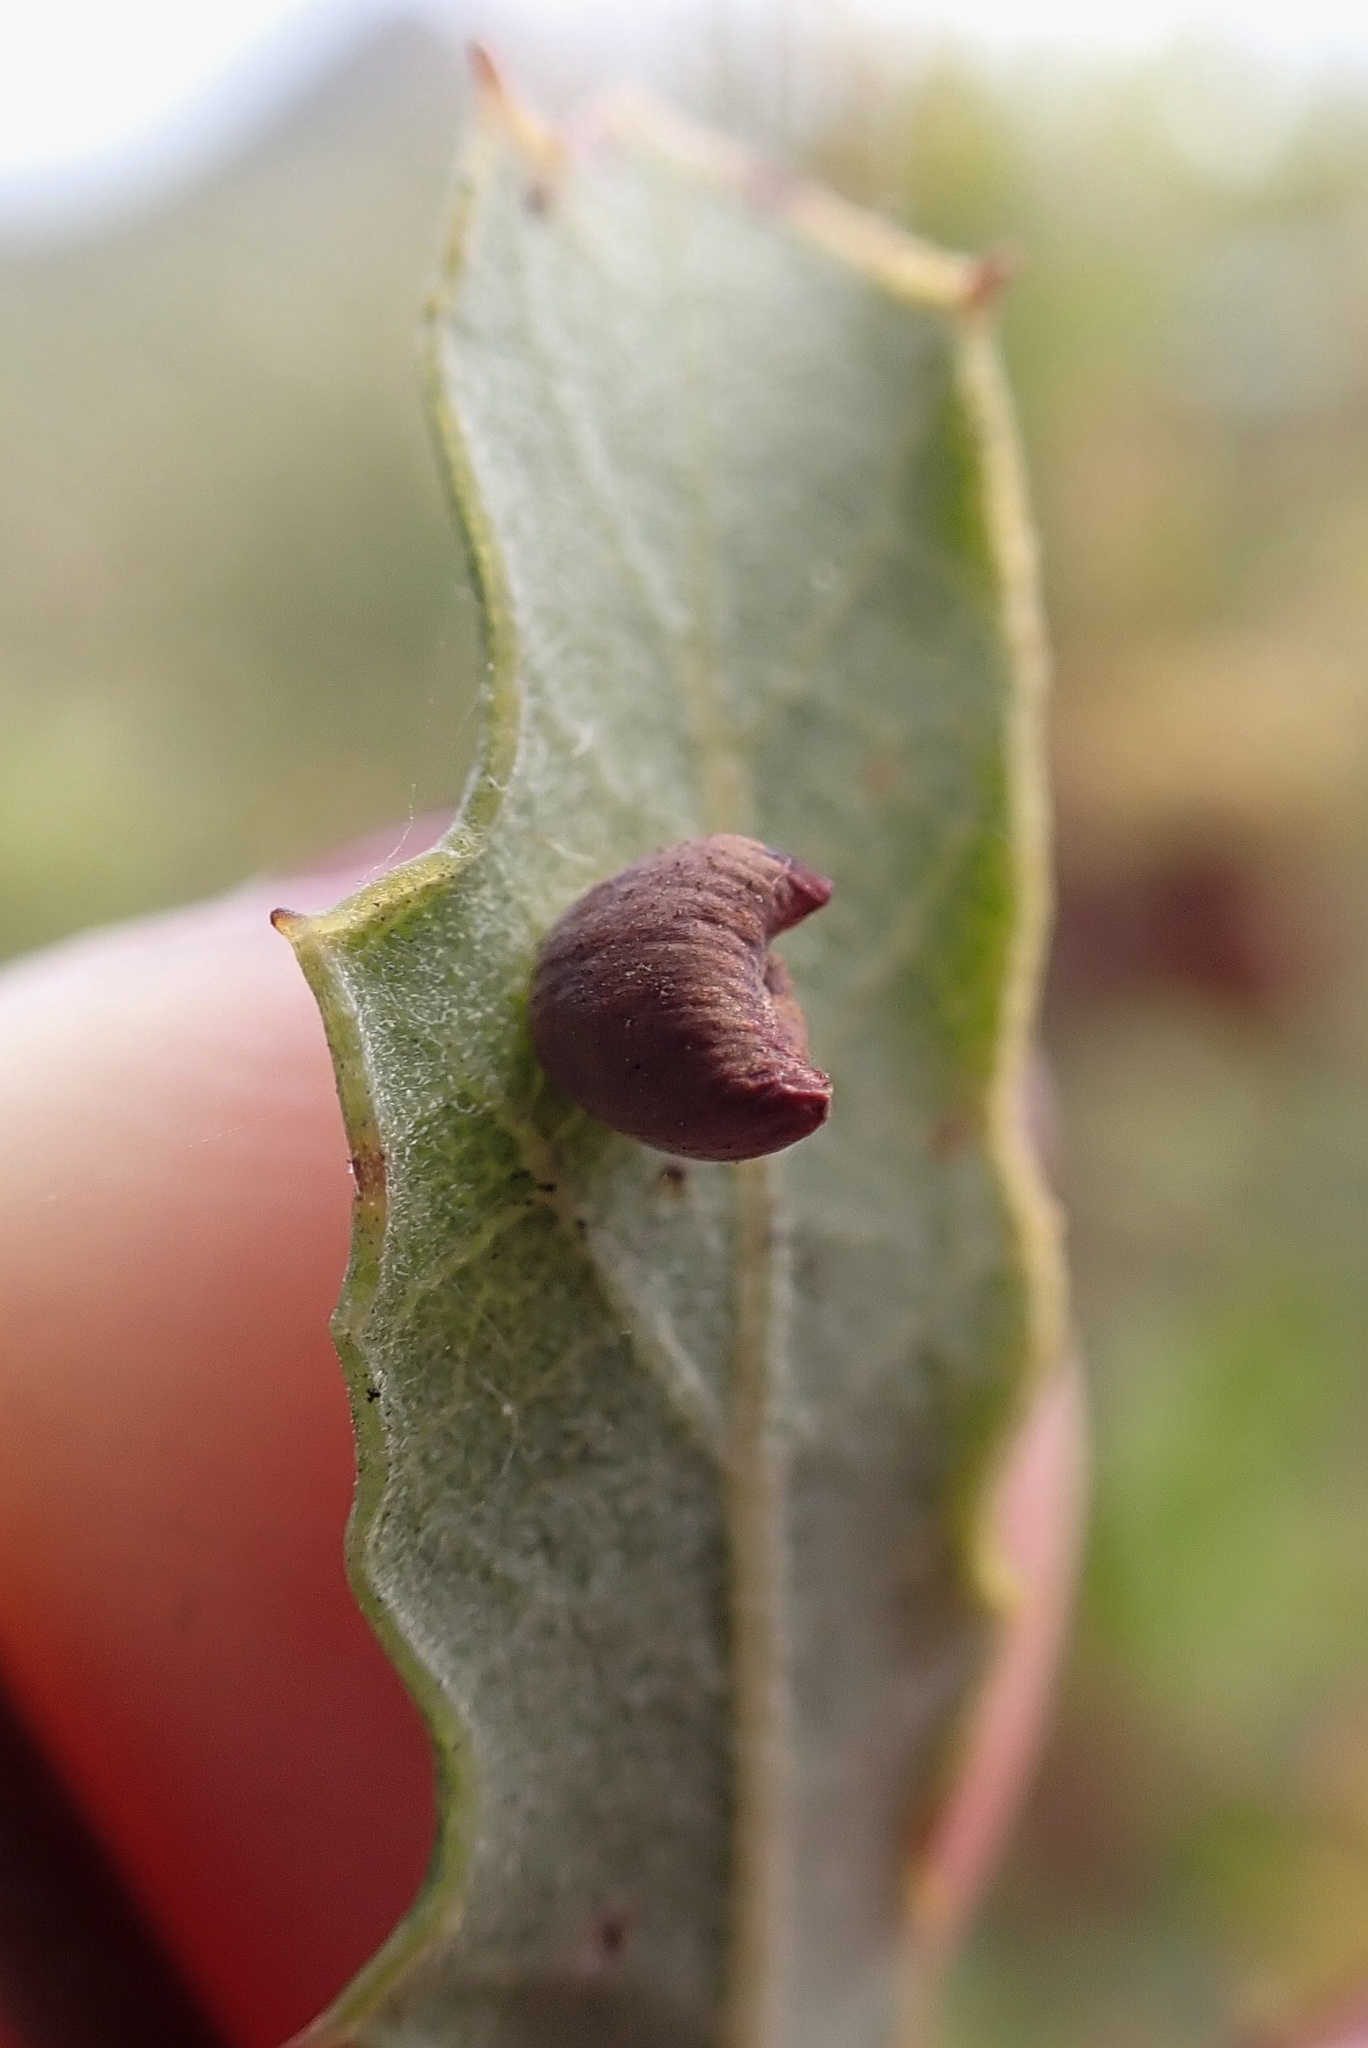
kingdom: Animalia
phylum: Arthropoda
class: Insecta
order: Hymenoptera
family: Cynipidae
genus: Andricus
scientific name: Andricus
